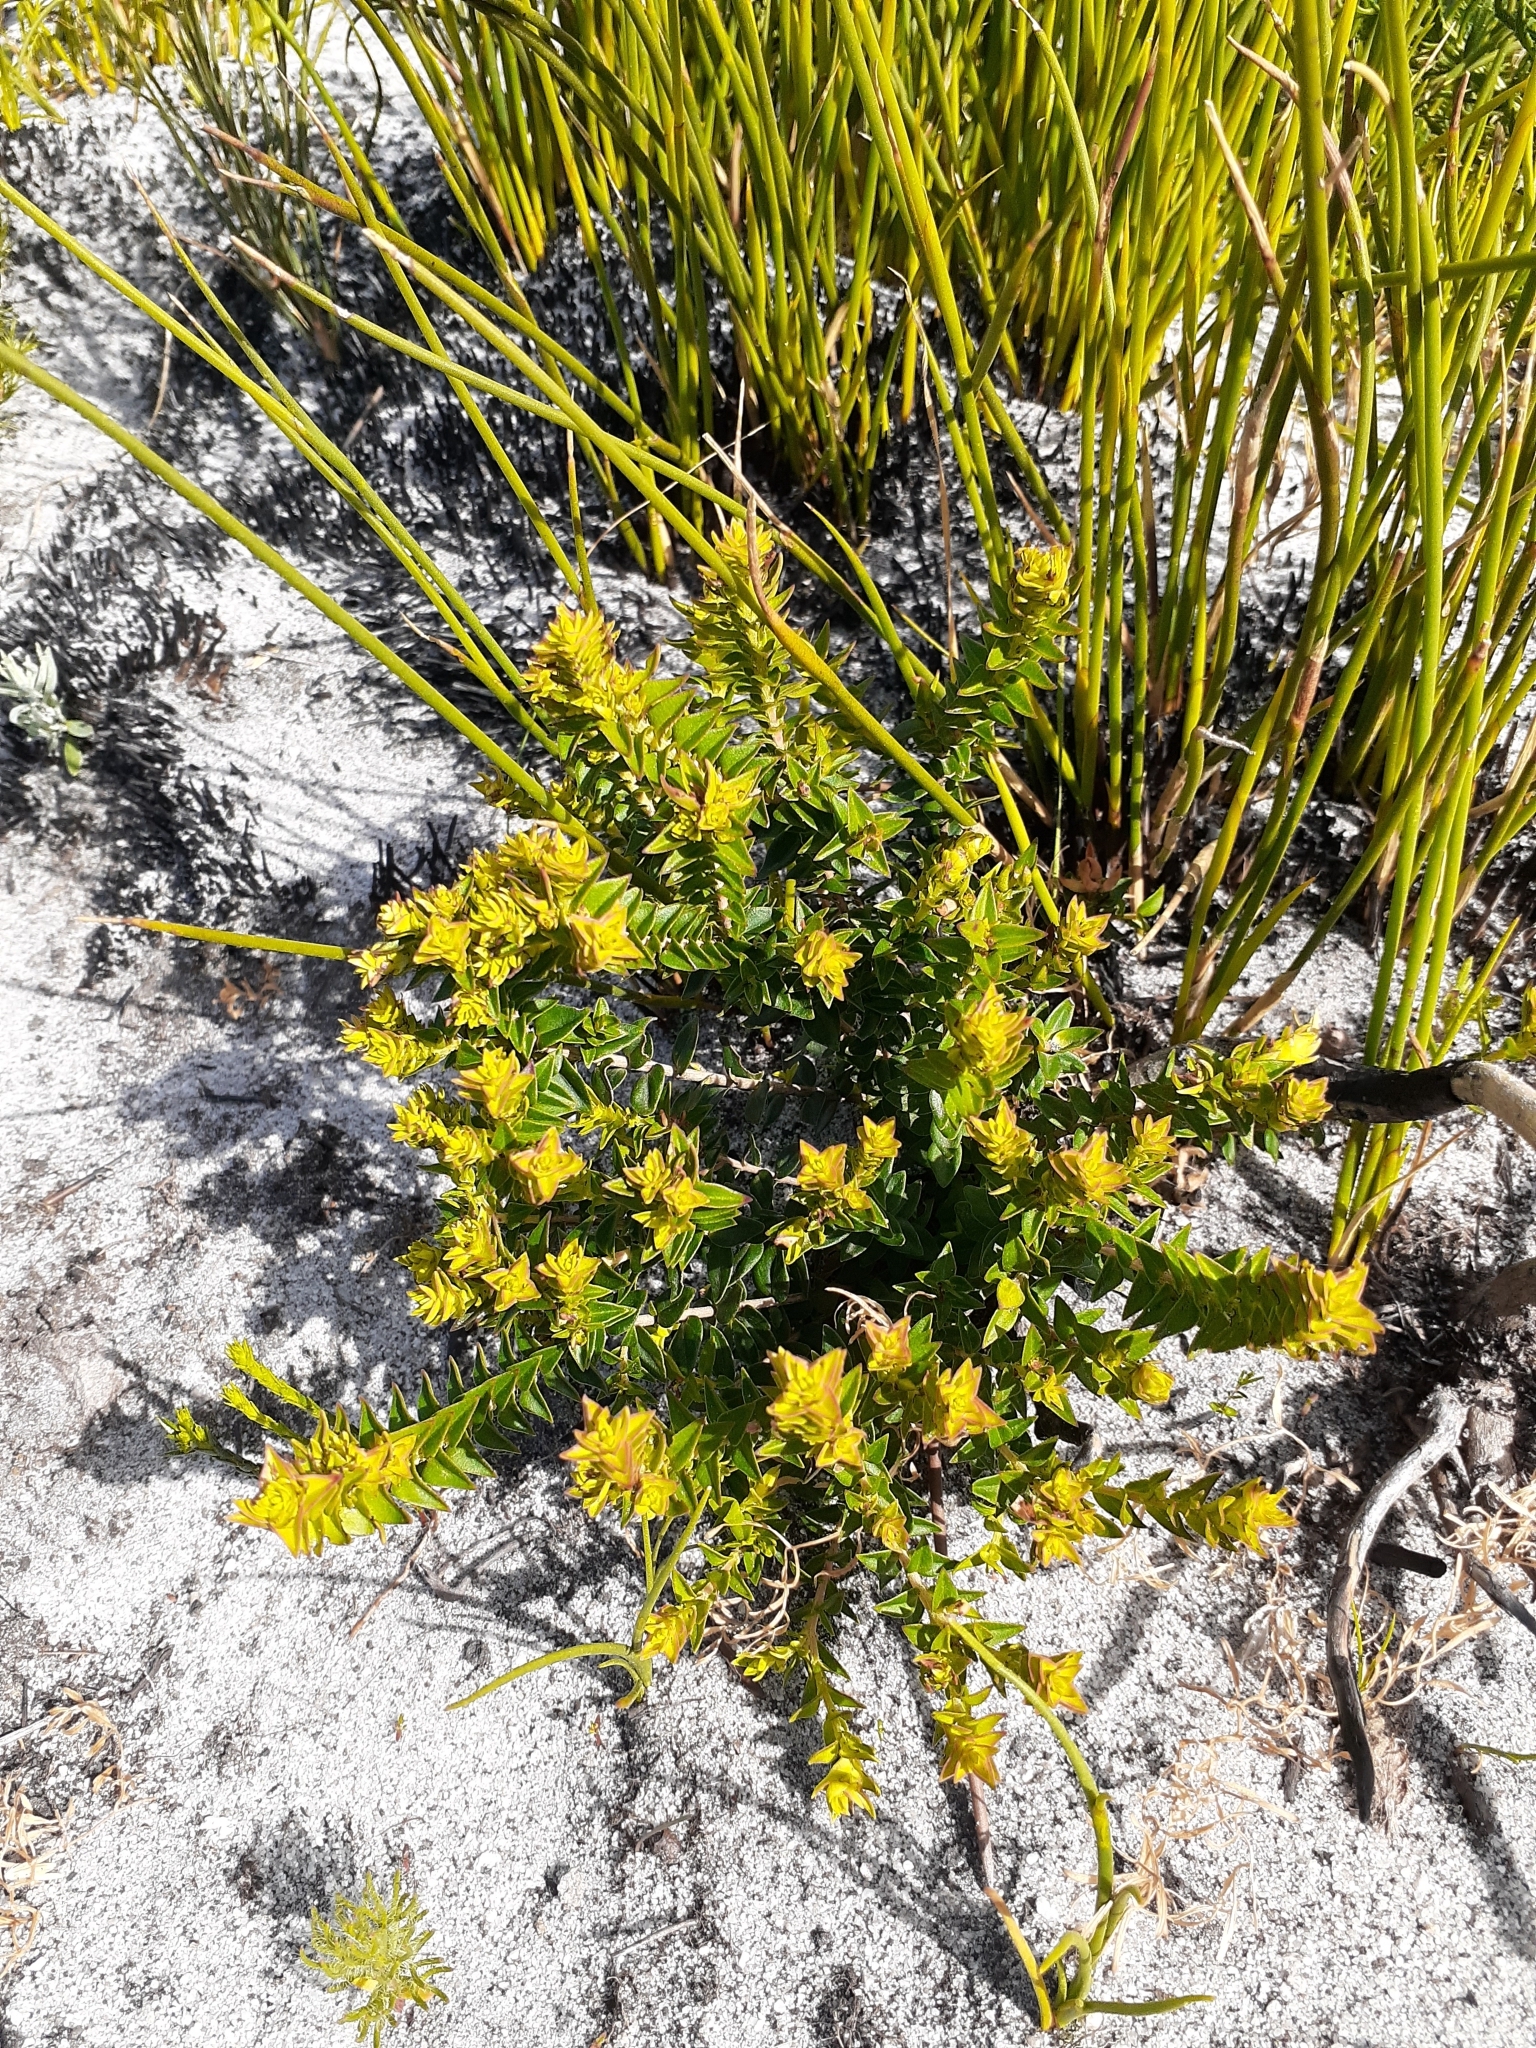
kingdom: Plantae
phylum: Tracheophyta
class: Magnoliopsida
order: Myrtales
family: Penaeaceae
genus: Penaea
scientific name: Penaea mucronata
